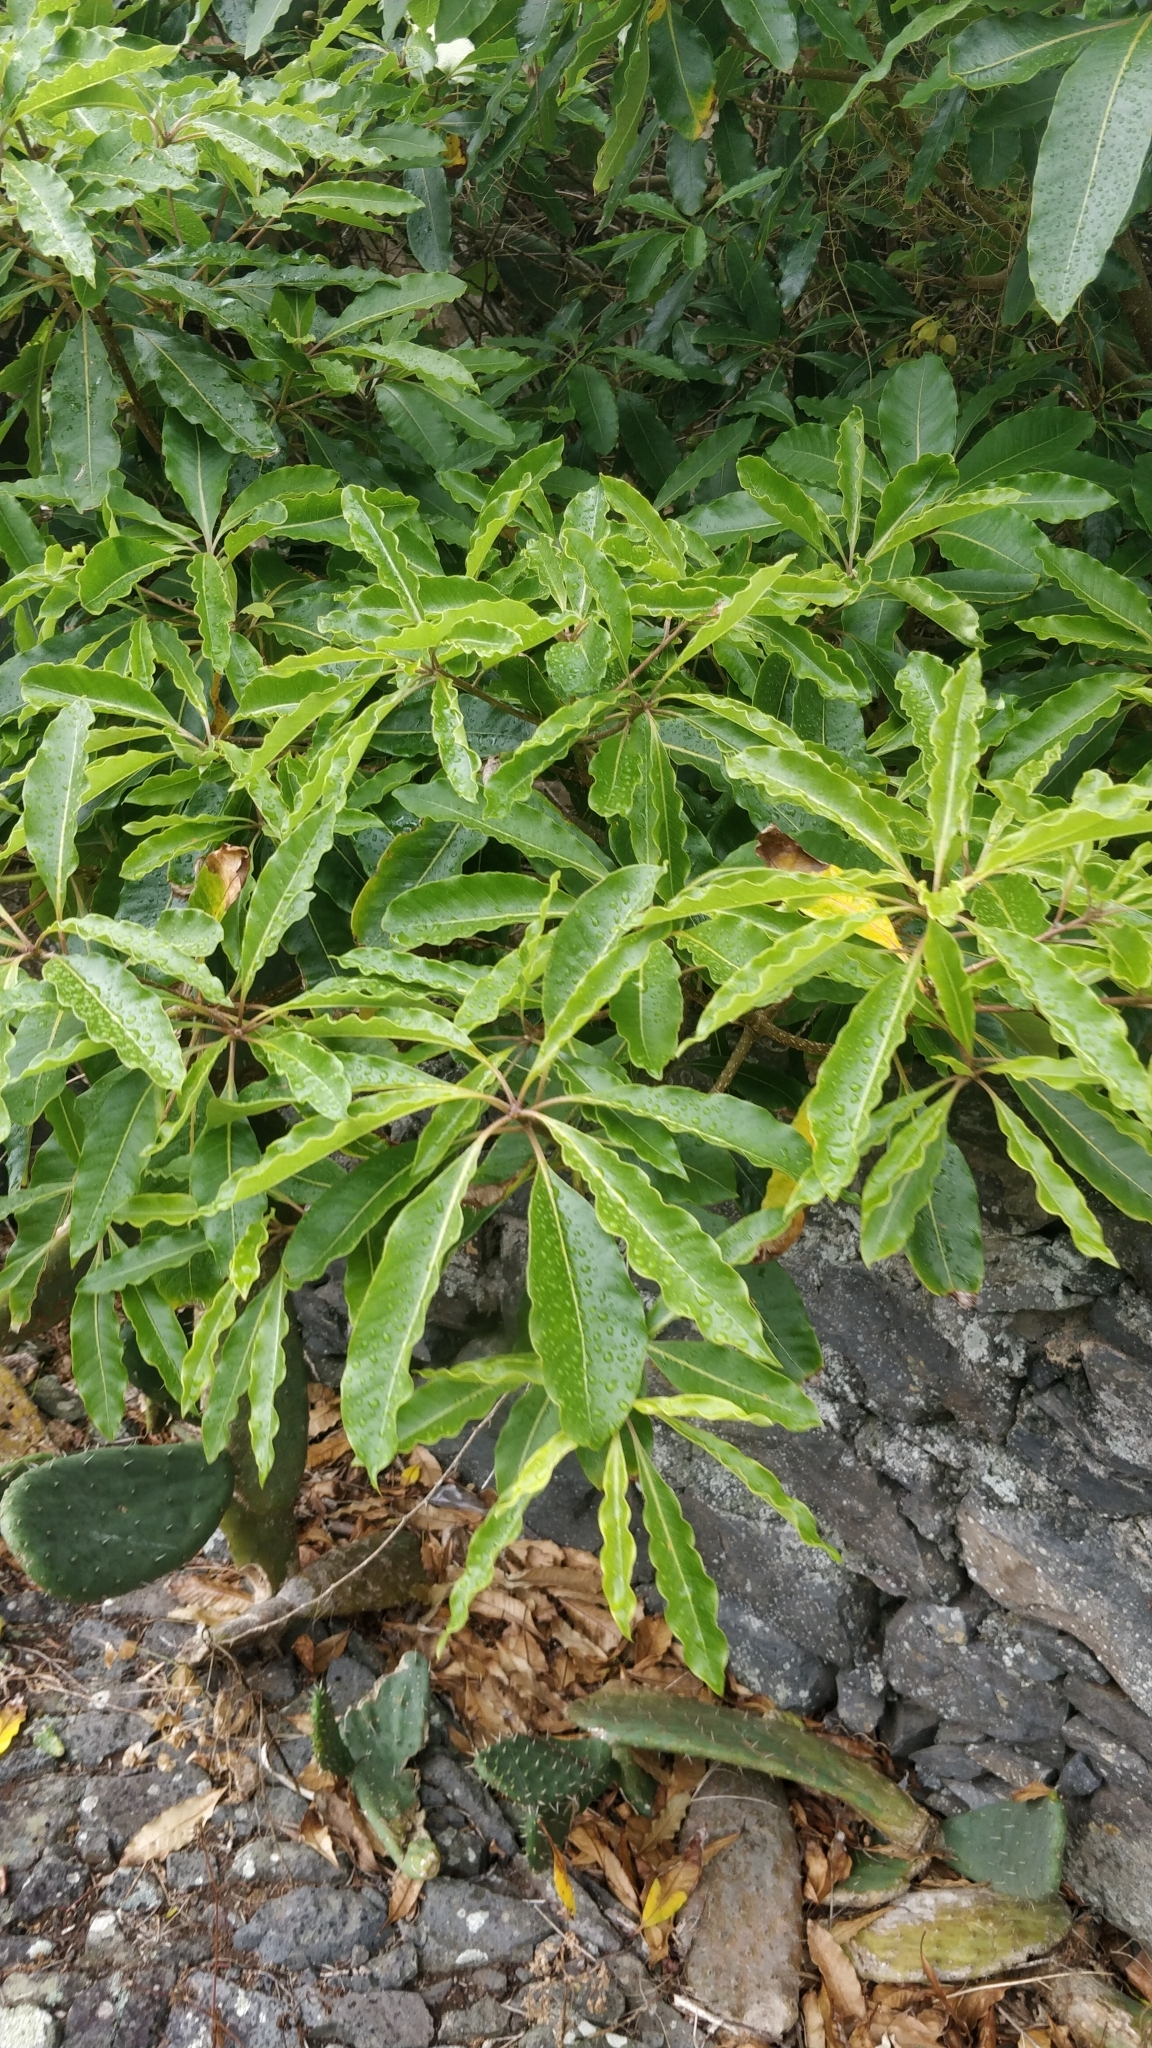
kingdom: Plantae
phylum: Tracheophyta
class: Magnoliopsida
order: Apiales
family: Pittosporaceae
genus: Pittosporum
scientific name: Pittosporum undulatum
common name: Australian cheesewood
